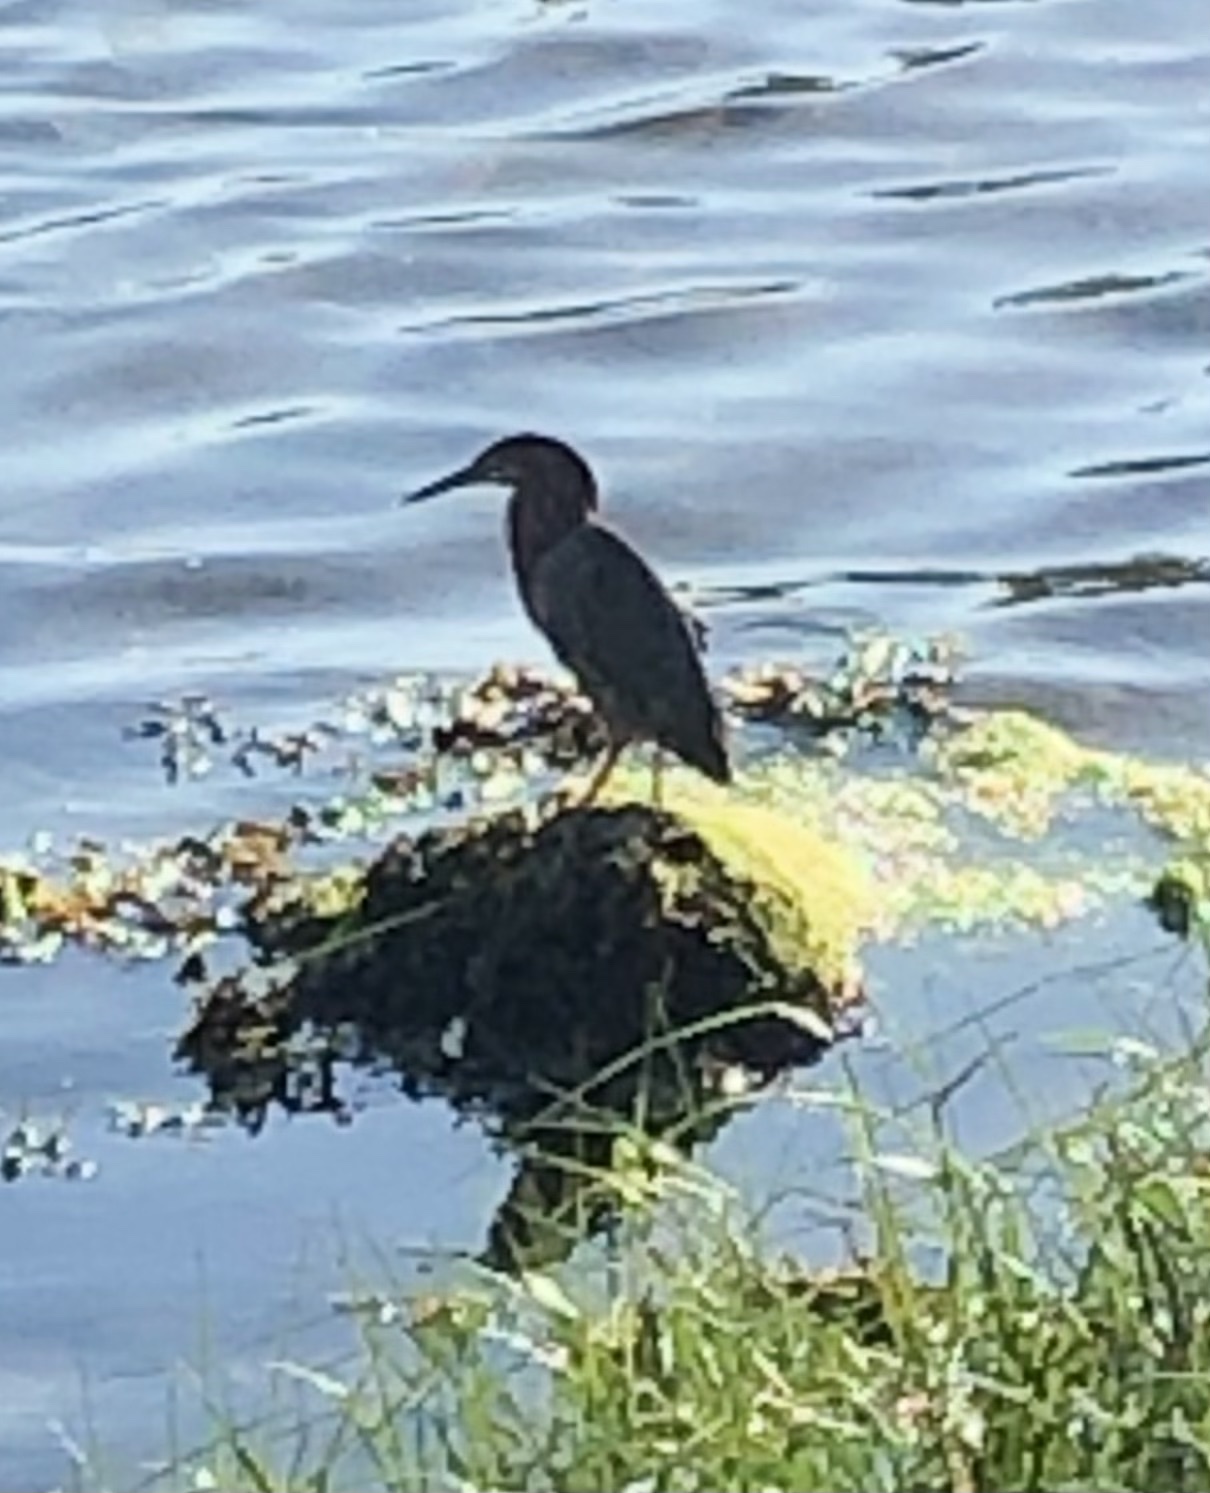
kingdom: Animalia
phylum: Chordata
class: Aves
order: Pelecaniformes
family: Ardeidae
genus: Butorides
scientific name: Butorides virescens
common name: Green heron
